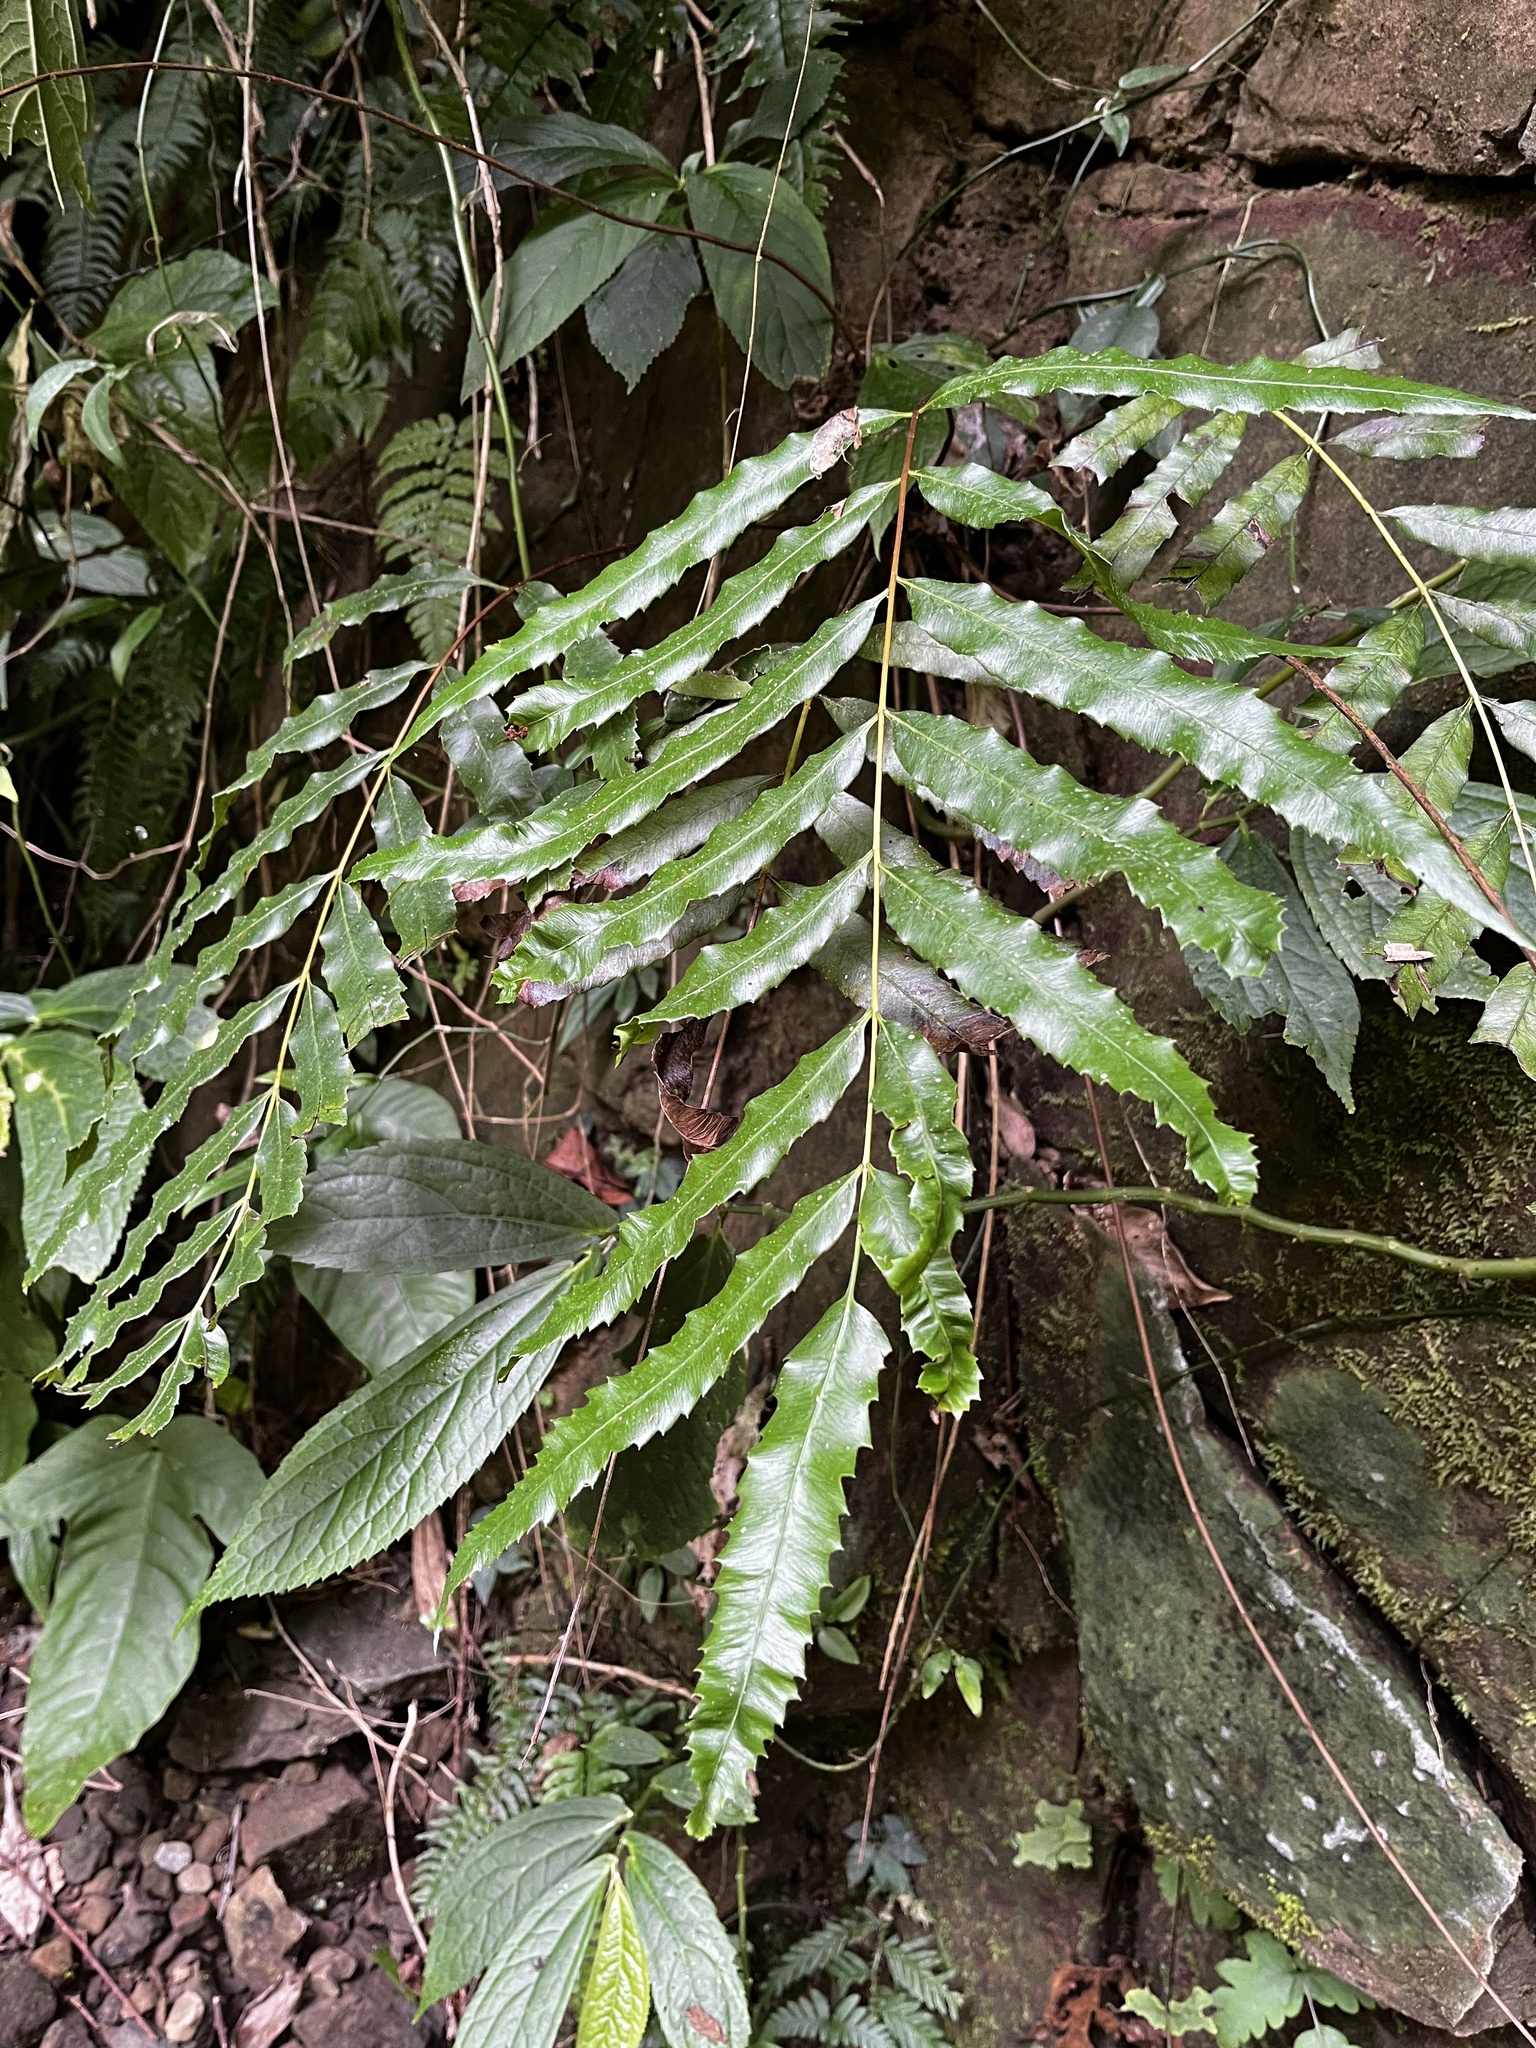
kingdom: Plantae
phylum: Tracheophyta
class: Polypodiopsida
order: Osmundales
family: Osmundaceae
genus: Plenasium
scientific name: Plenasium banksiifolium
